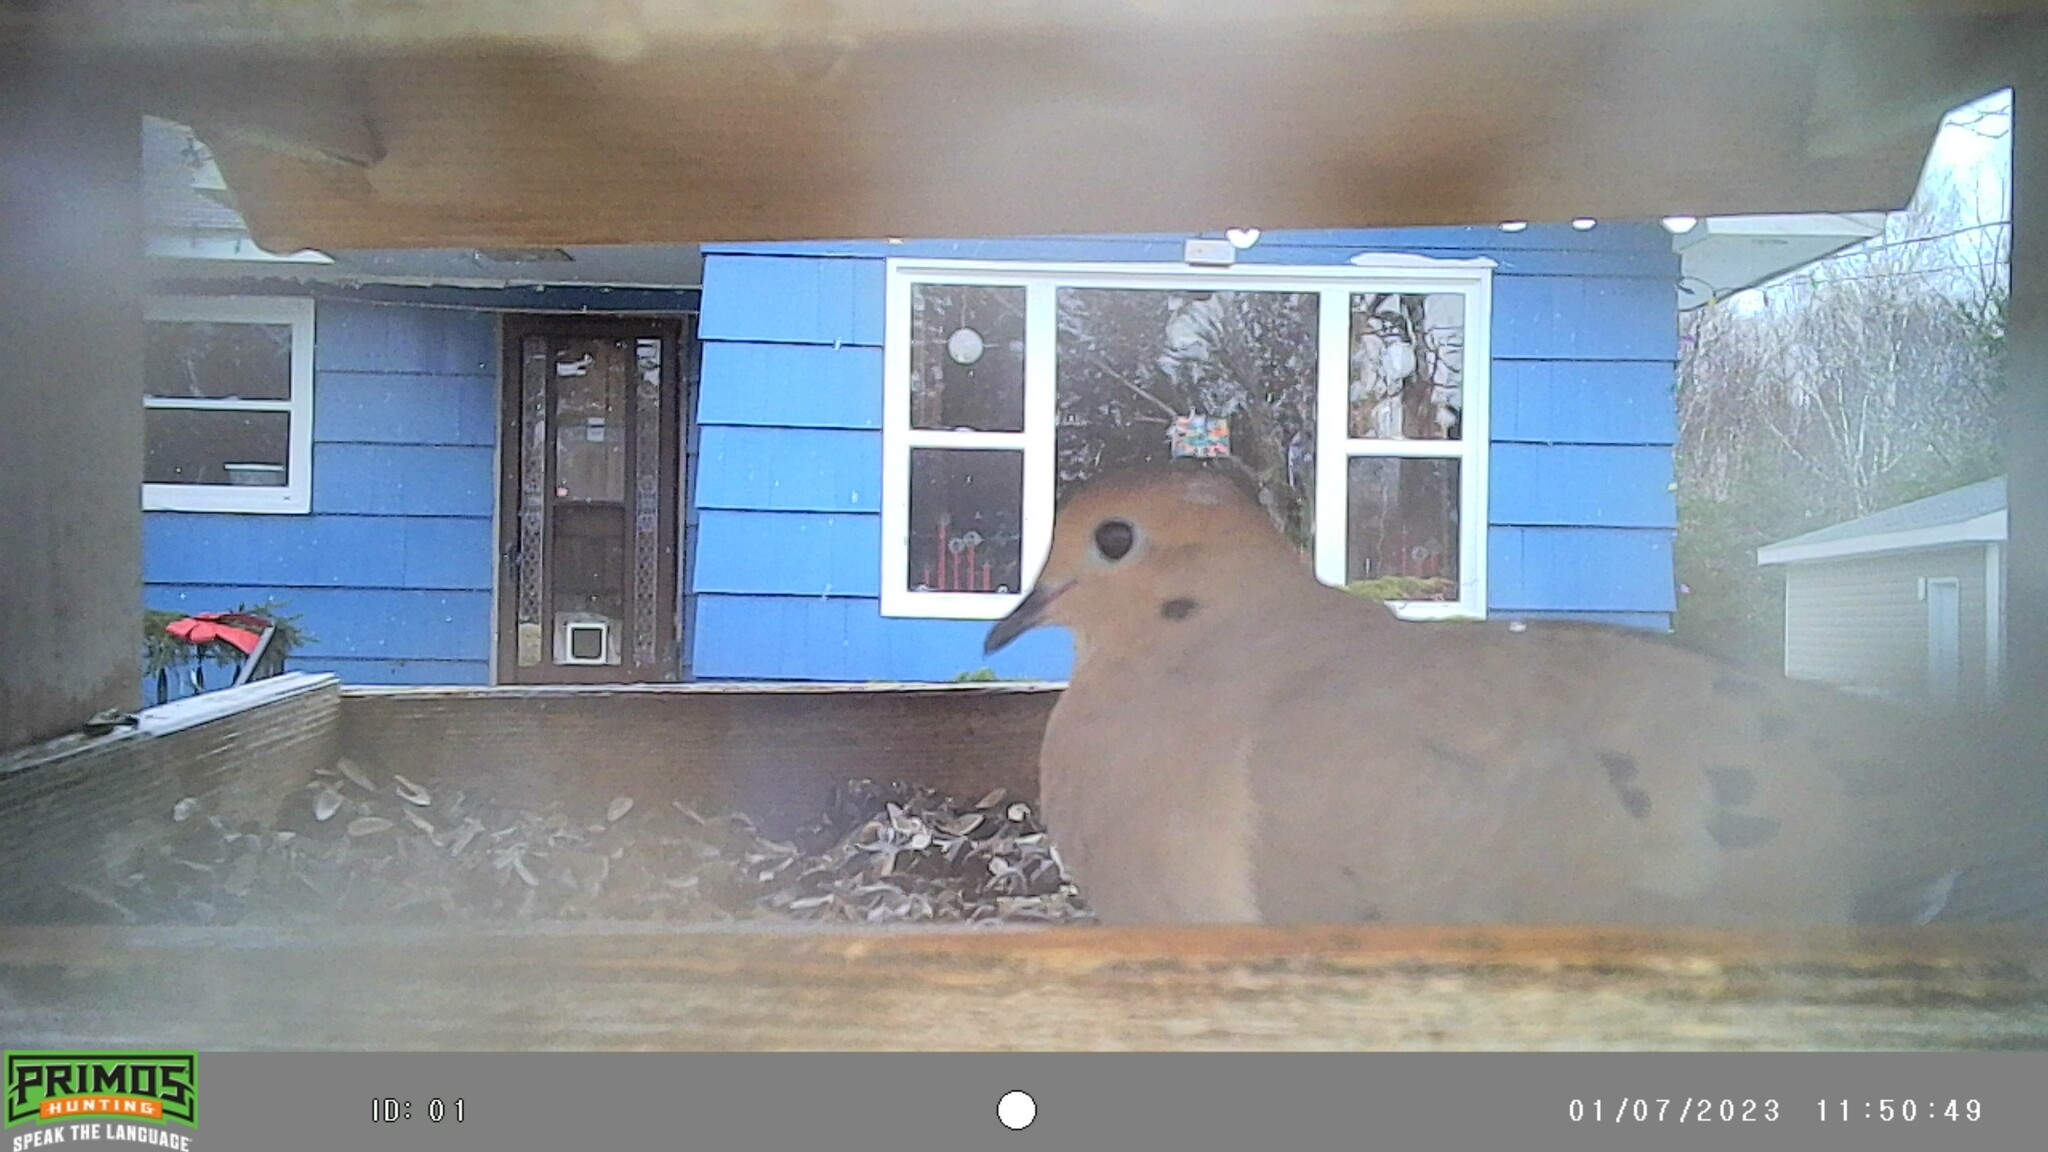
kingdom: Animalia
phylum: Chordata
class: Aves
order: Columbiformes
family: Columbidae
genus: Zenaida
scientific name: Zenaida macroura
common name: Mourning dove
